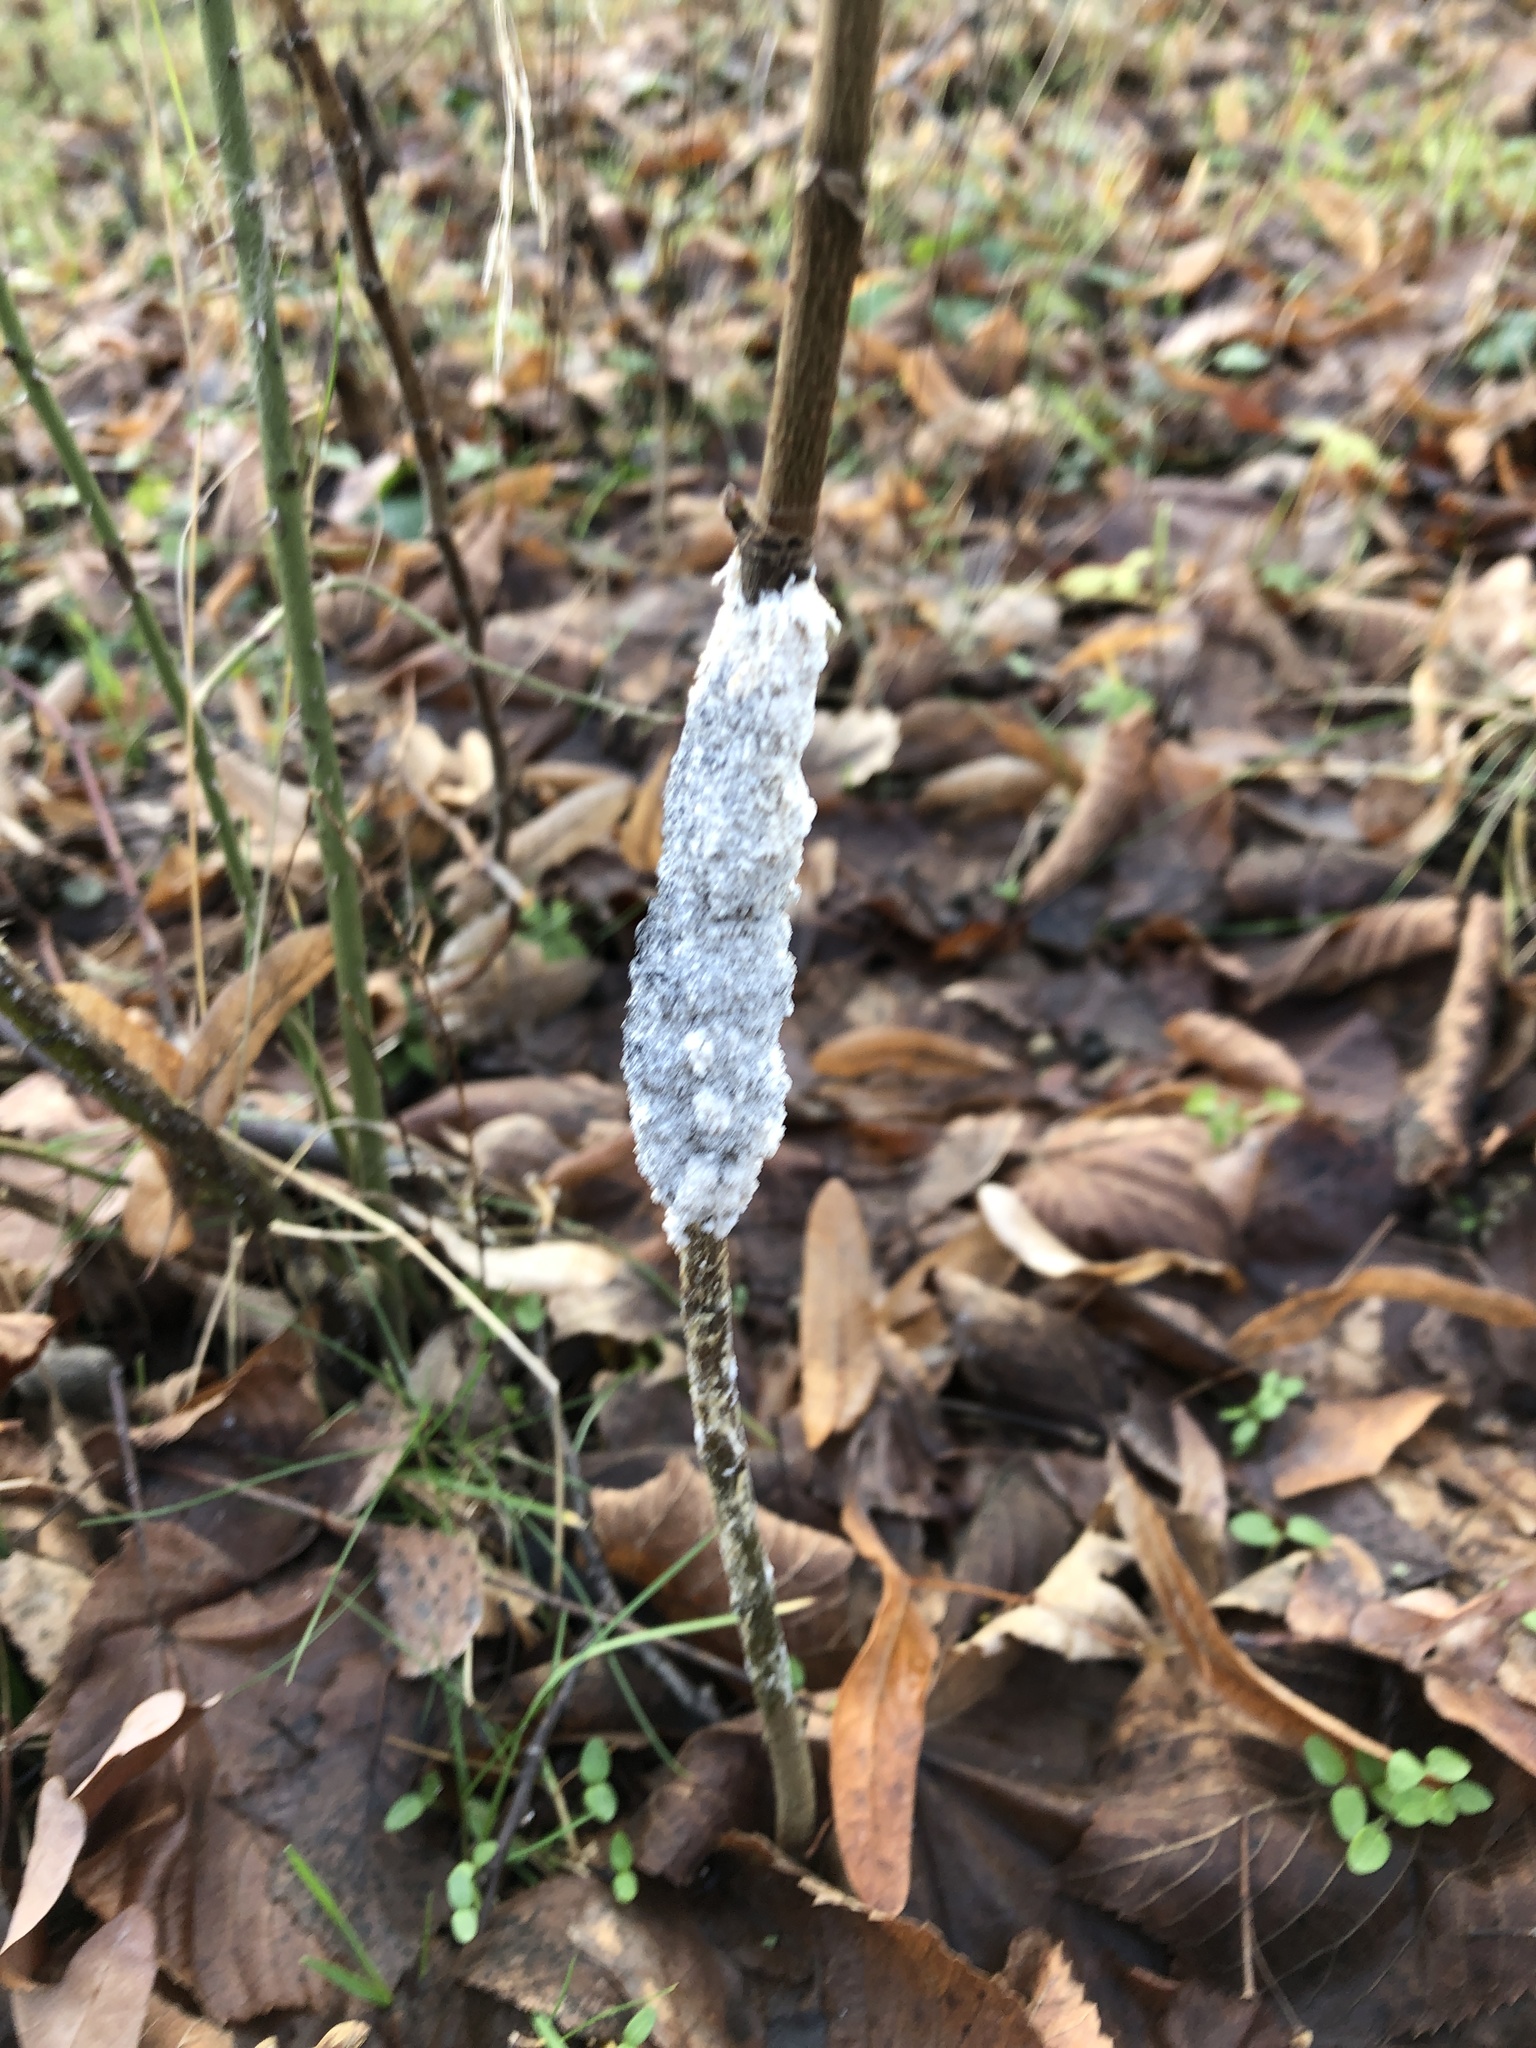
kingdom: Protozoa
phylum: Mycetozoa
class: Myxomycetes
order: Physarales
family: Physaraceae
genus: Didymium
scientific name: Didymium
